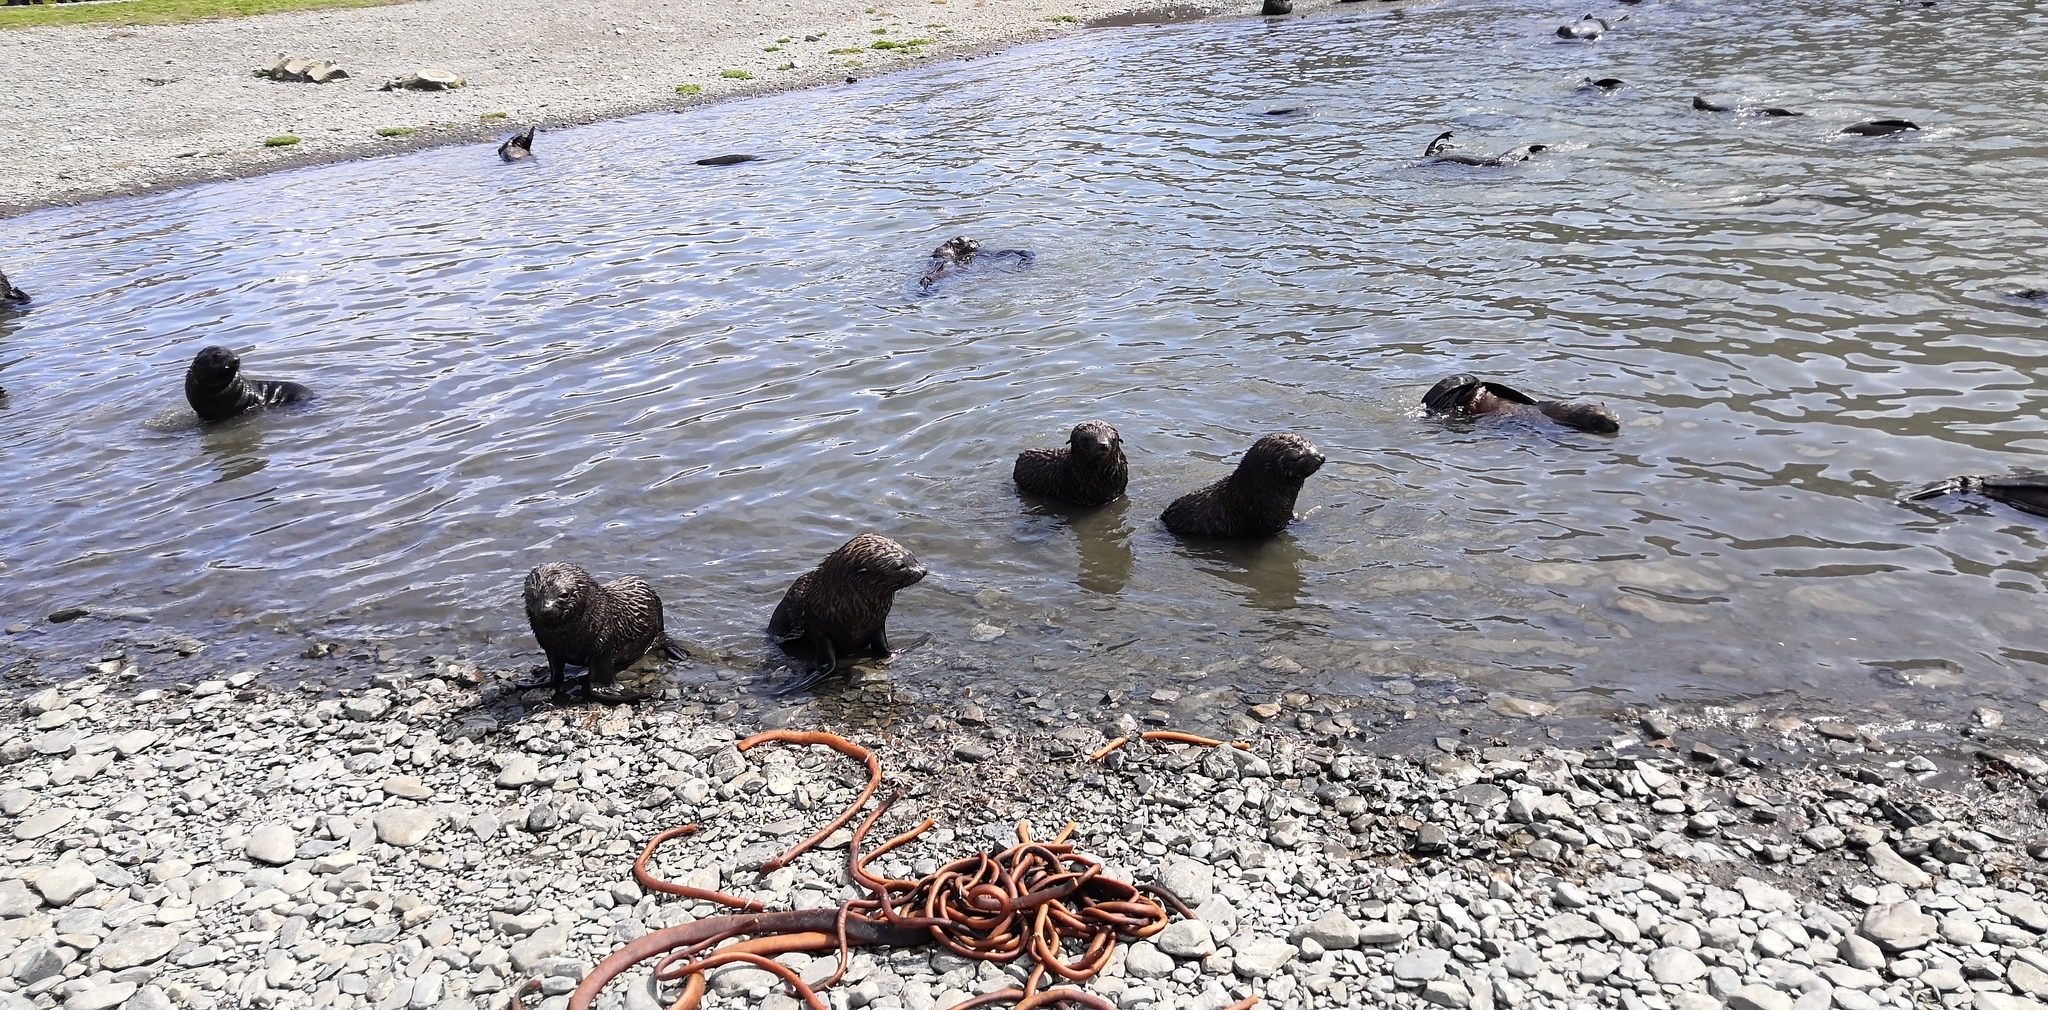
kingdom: Animalia
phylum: Chordata
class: Mammalia
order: Carnivora
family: Otariidae
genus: Arctocephalus
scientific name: Arctocephalus gazella
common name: Antarctic fur seal
